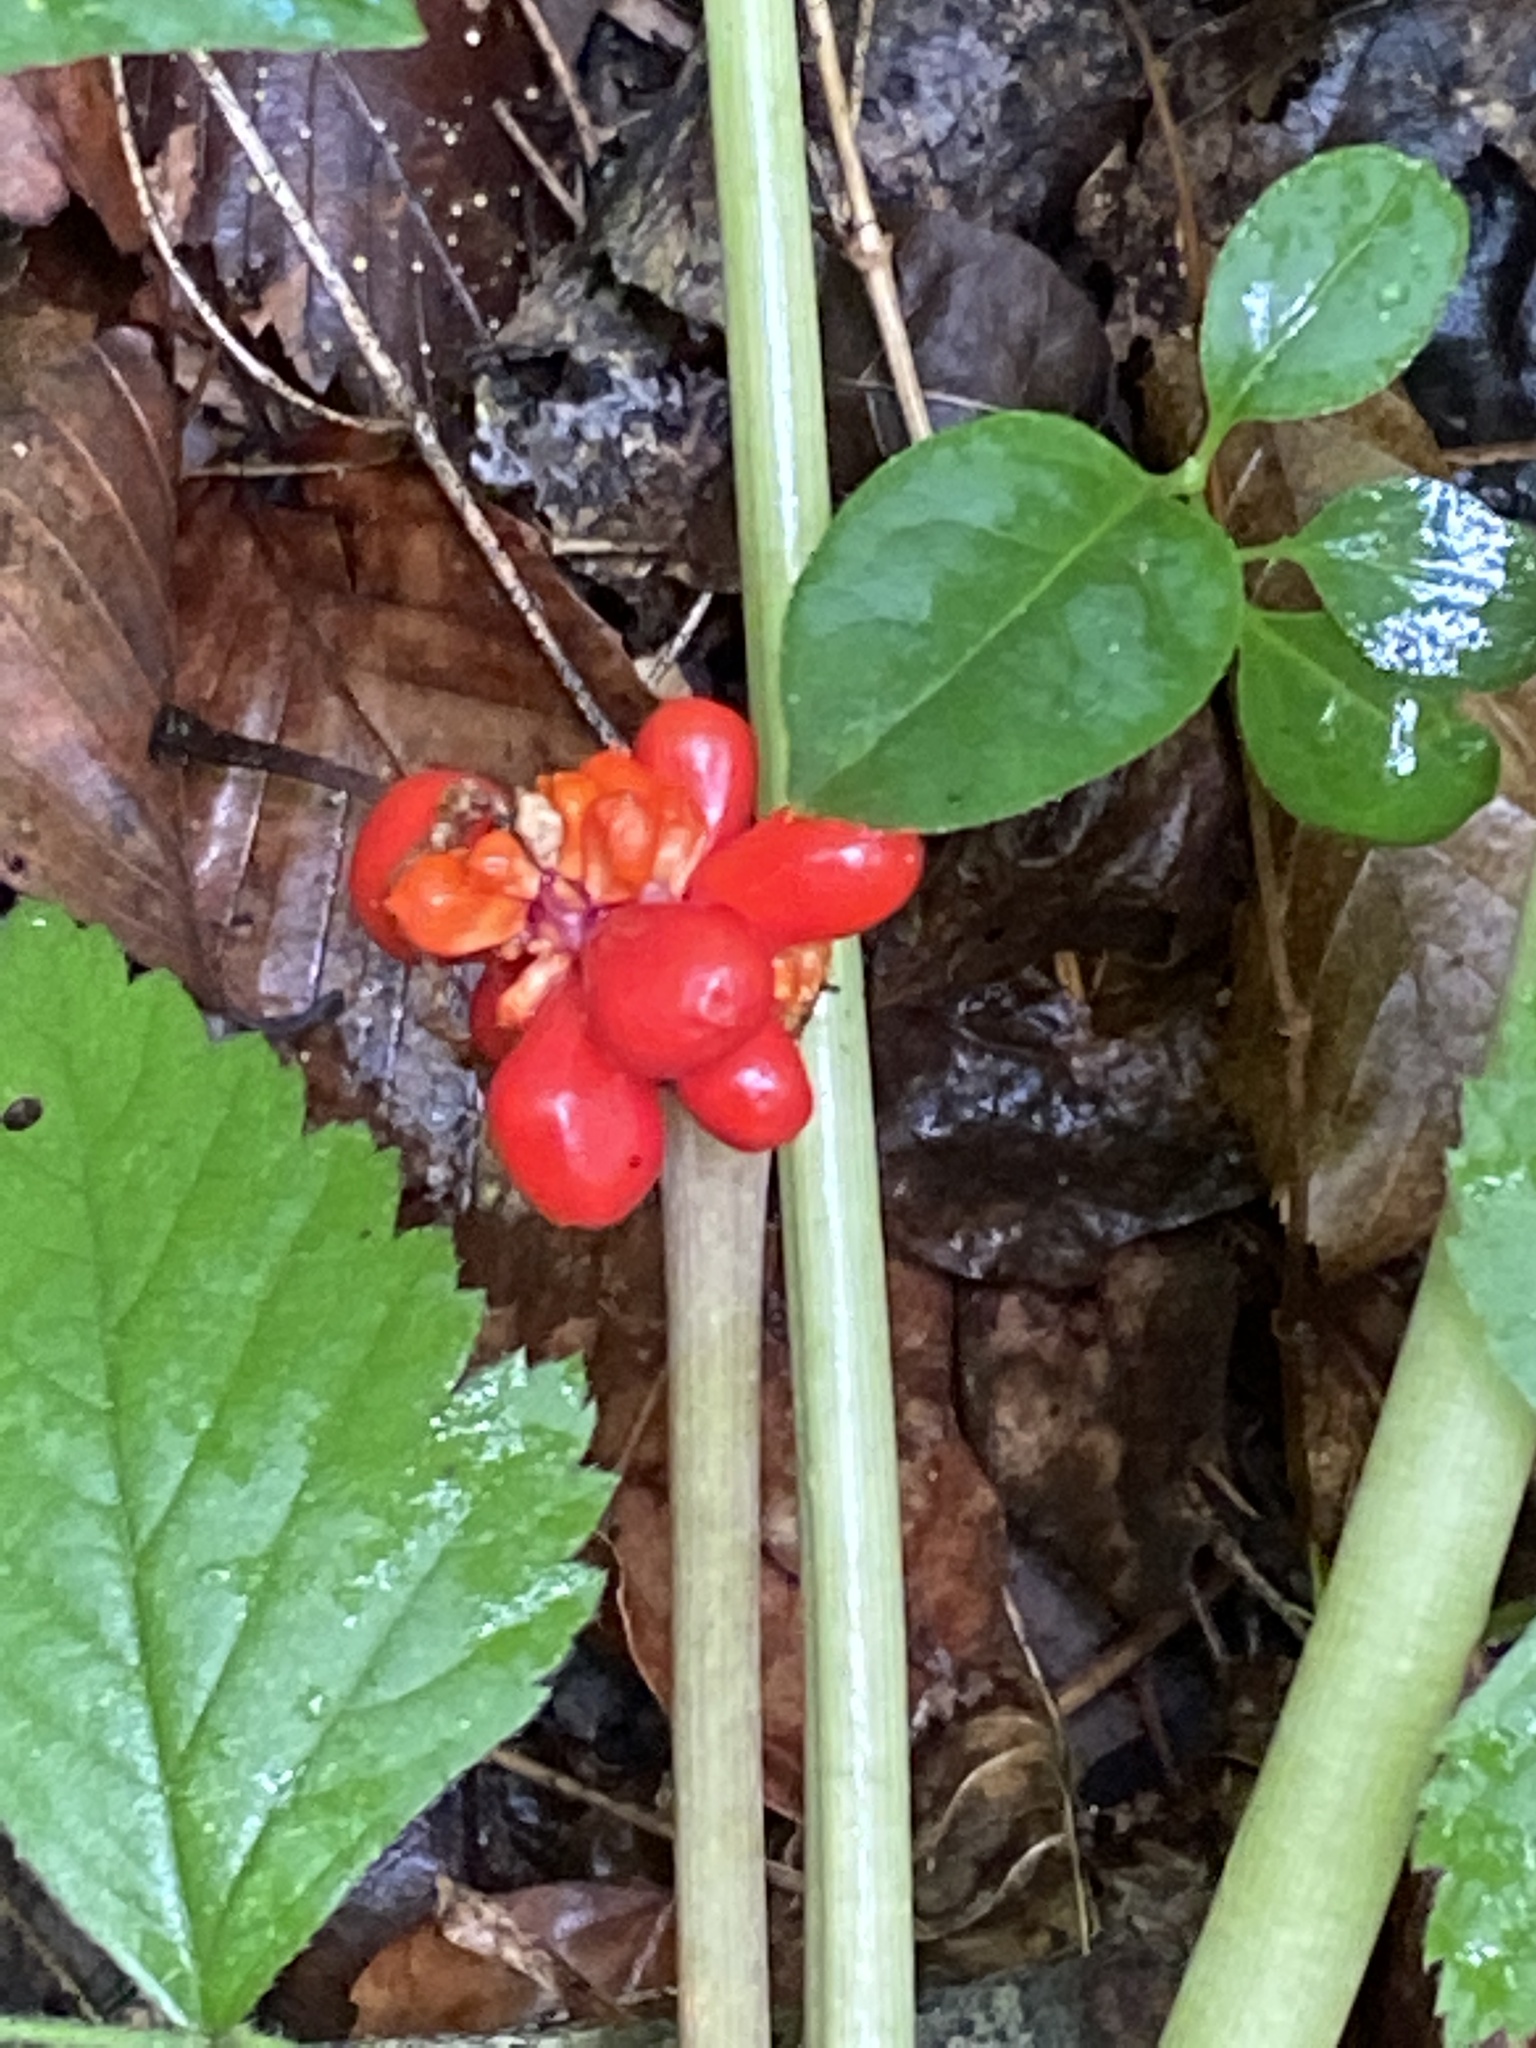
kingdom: Plantae
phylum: Tracheophyta
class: Liliopsida
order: Alismatales
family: Araceae
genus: Arisaema
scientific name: Arisaema triphyllum
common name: Jack-in-the-pulpit
